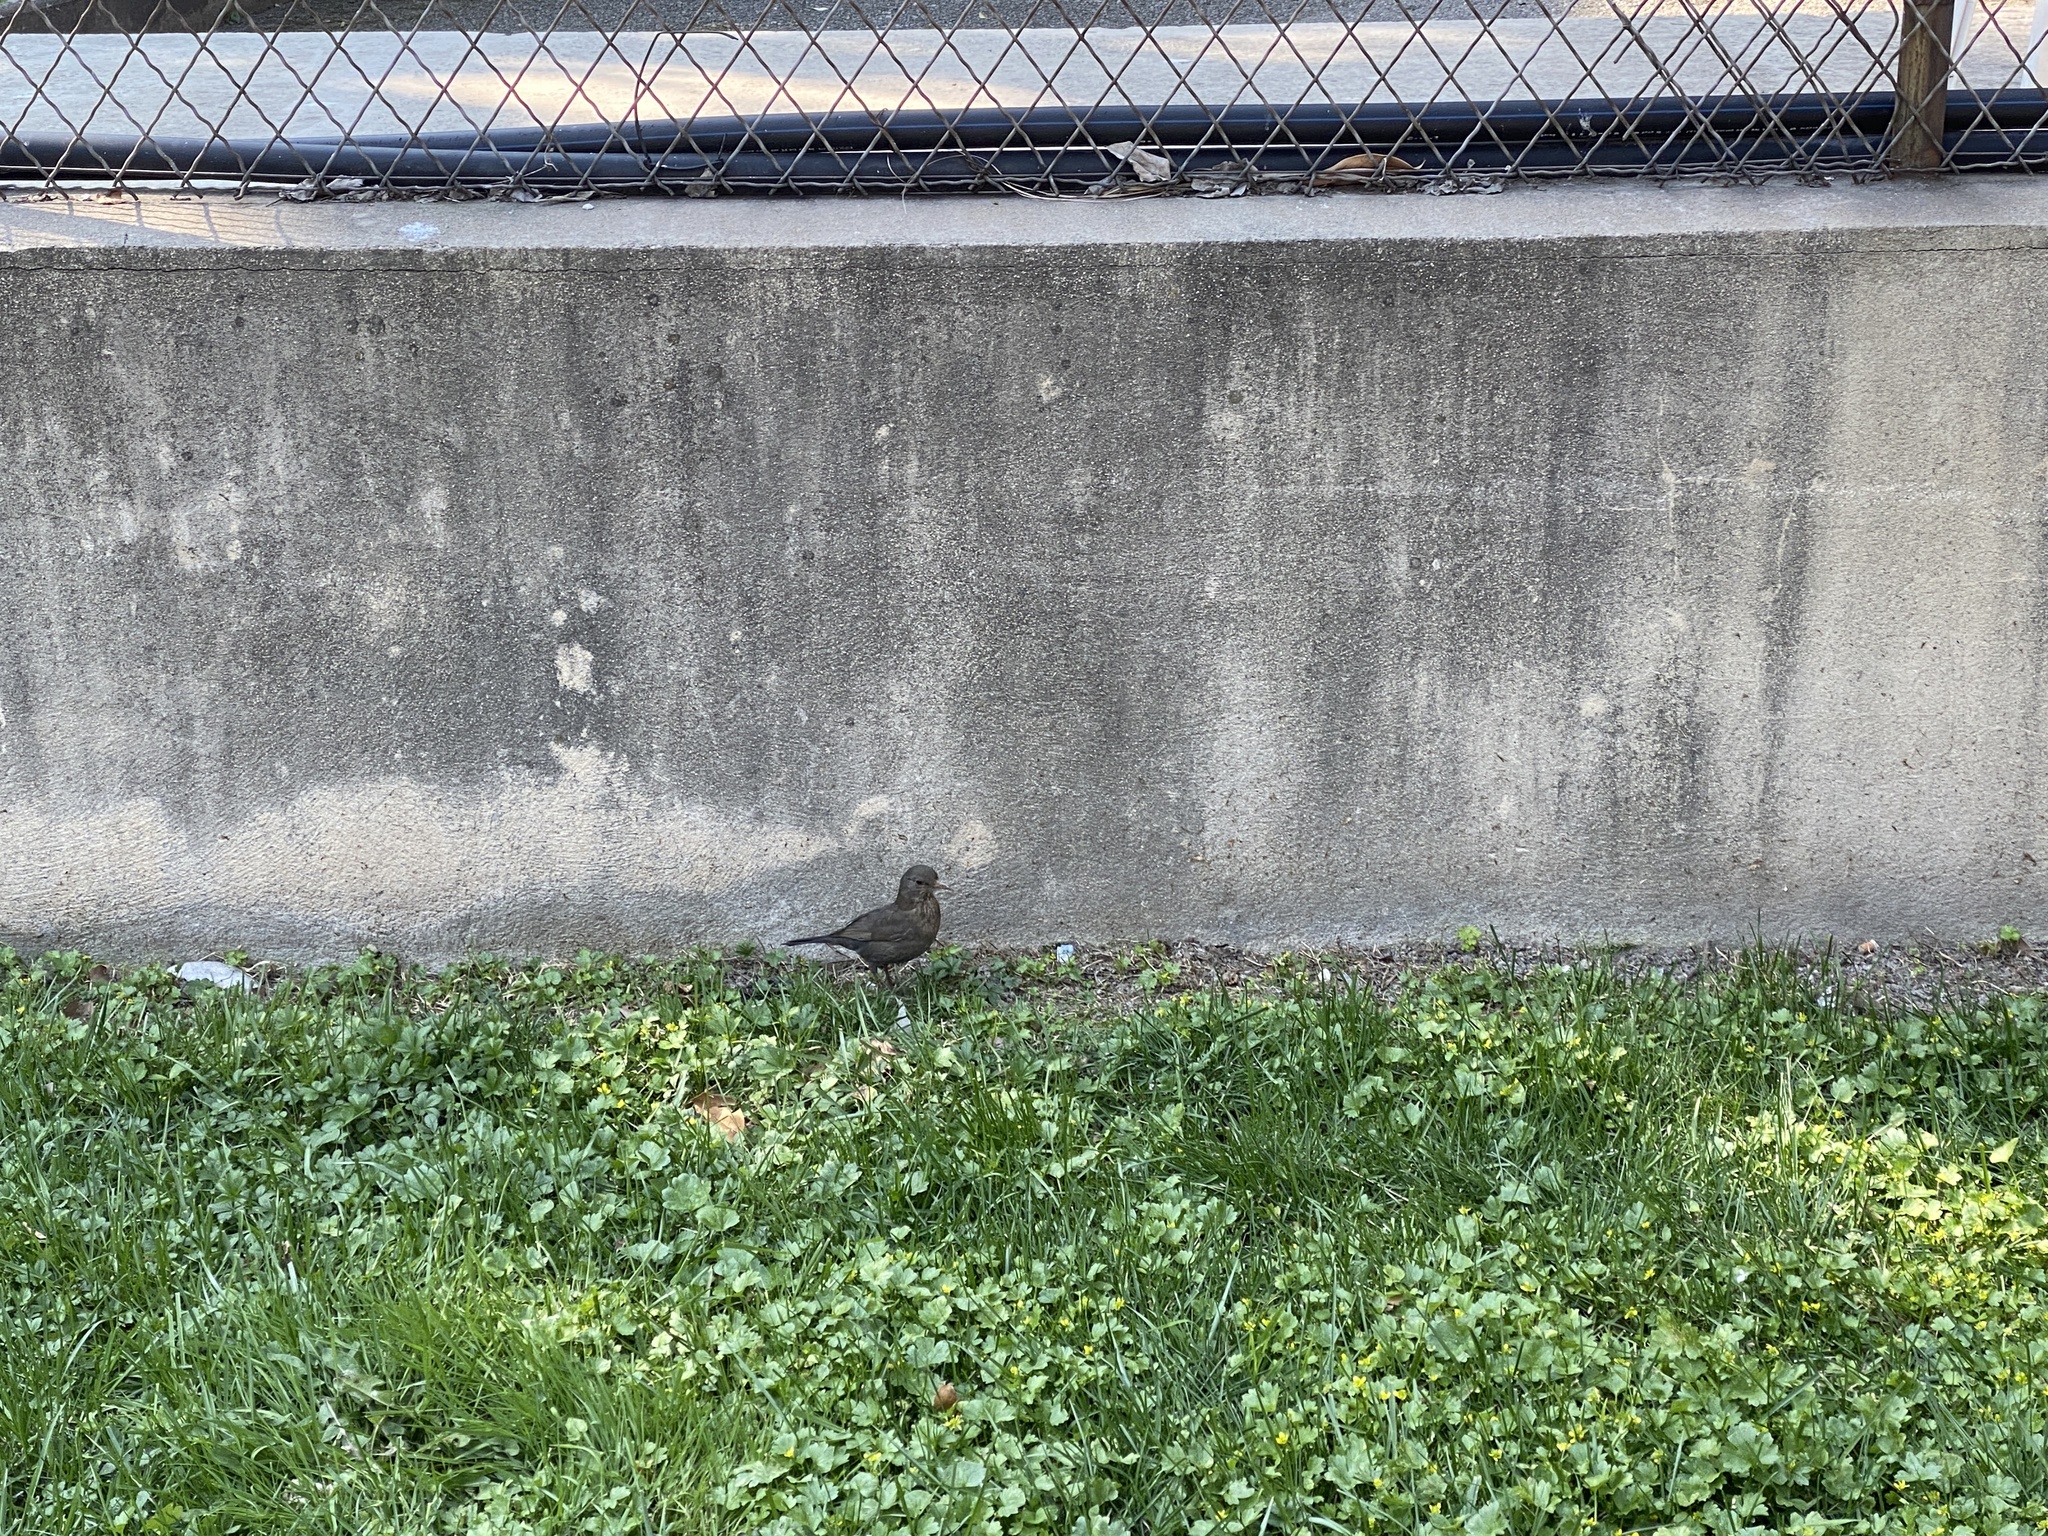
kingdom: Animalia
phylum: Chordata
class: Aves
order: Passeriformes
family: Turdidae
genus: Turdus
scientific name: Turdus merula
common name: Common blackbird
